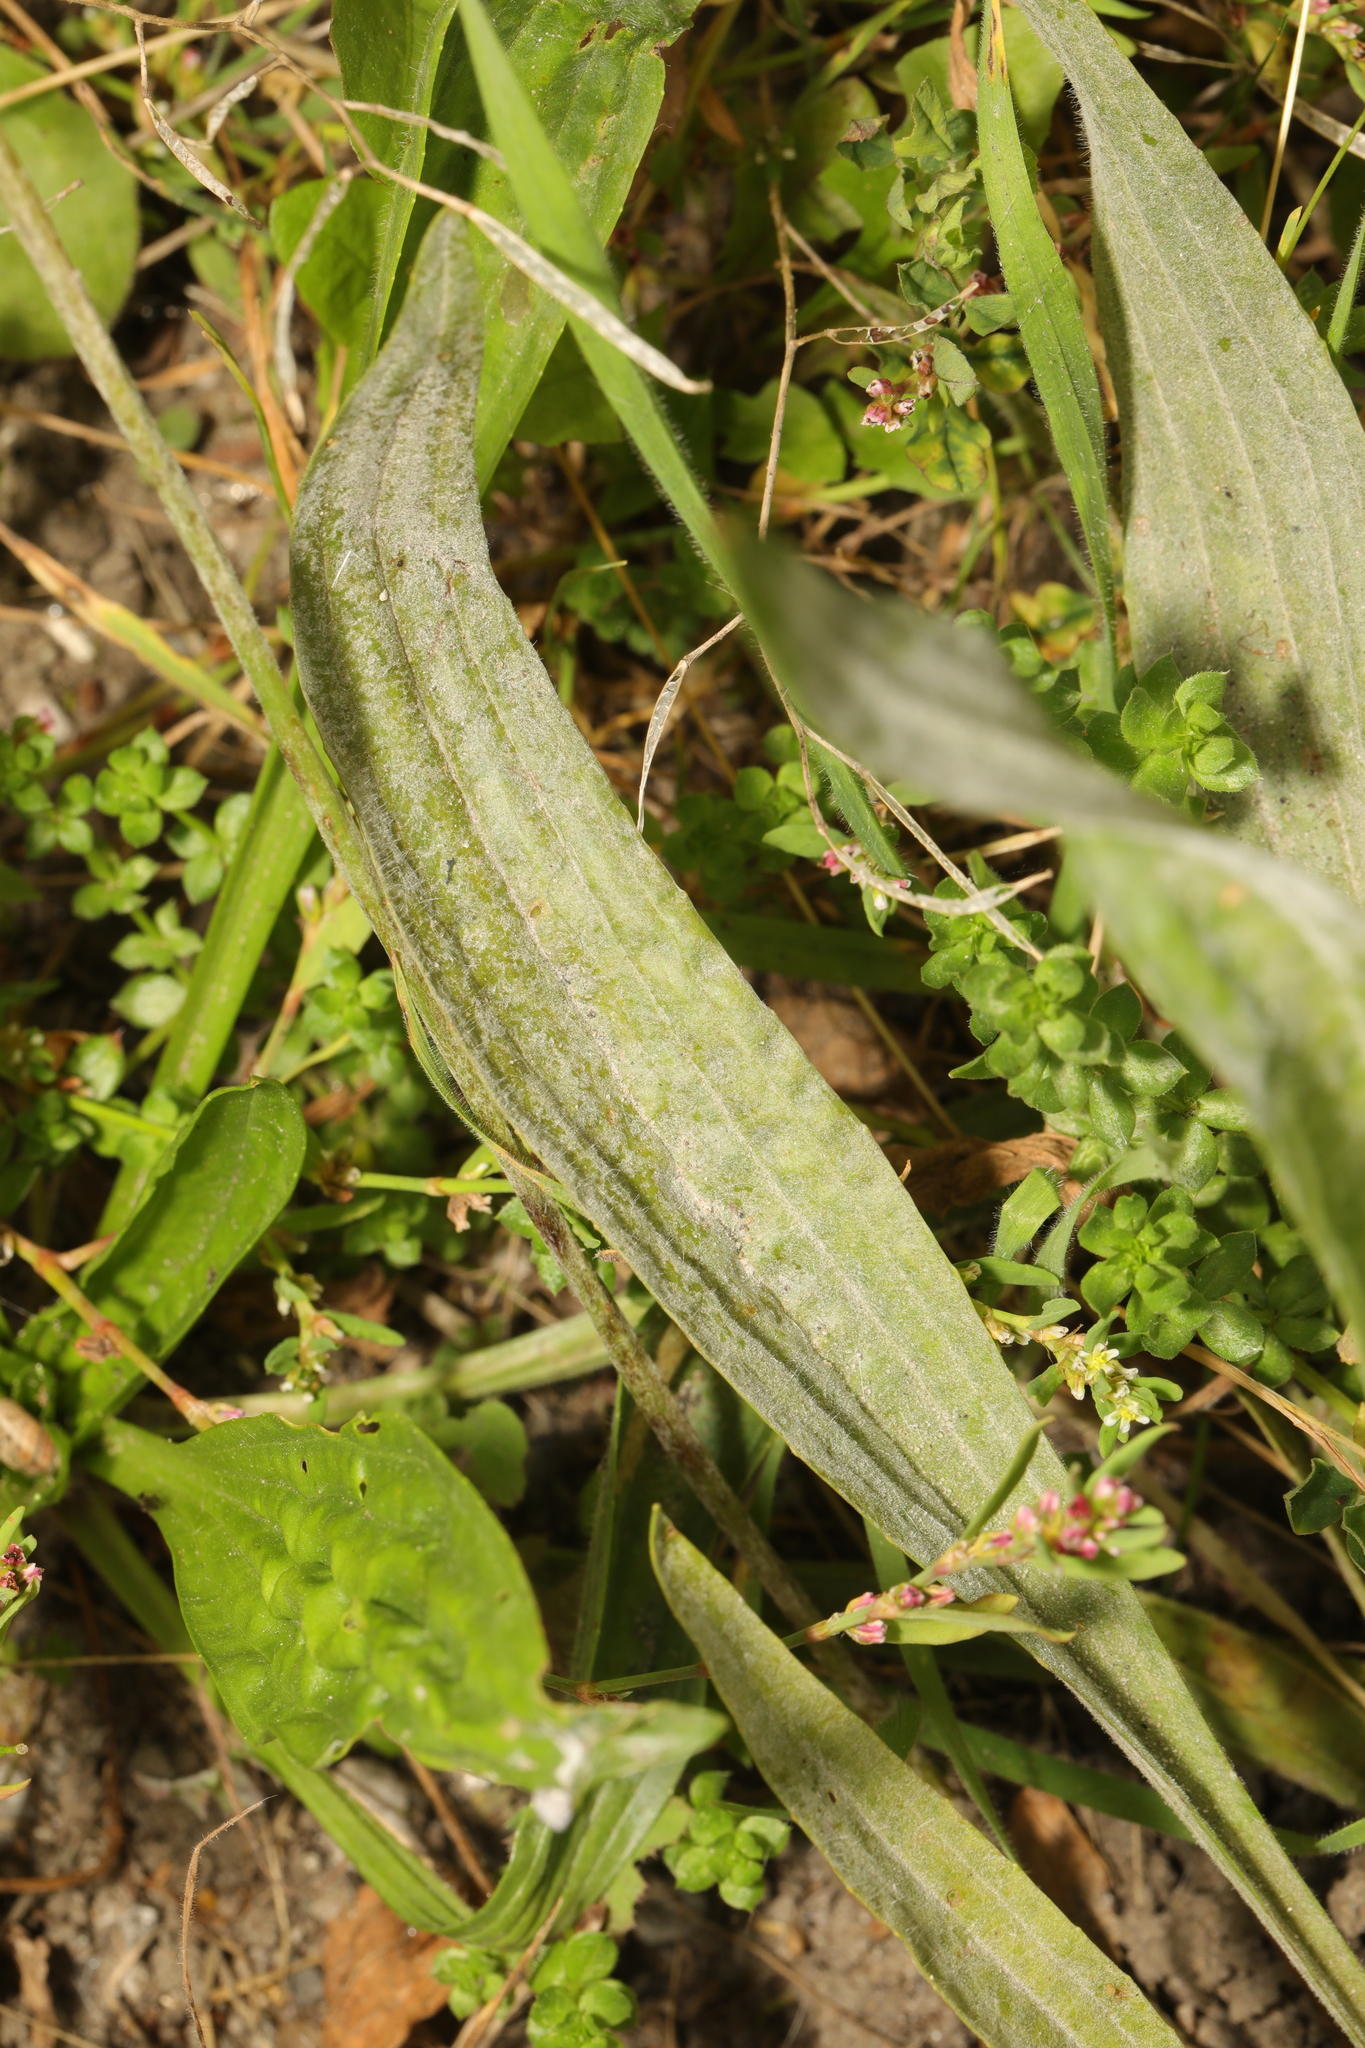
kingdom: Plantae
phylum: Tracheophyta
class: Magnoliopsida
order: Lamiales
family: Plantaginaceae
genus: Plantago
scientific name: Plantago lanceolata
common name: Ribwort plantain
